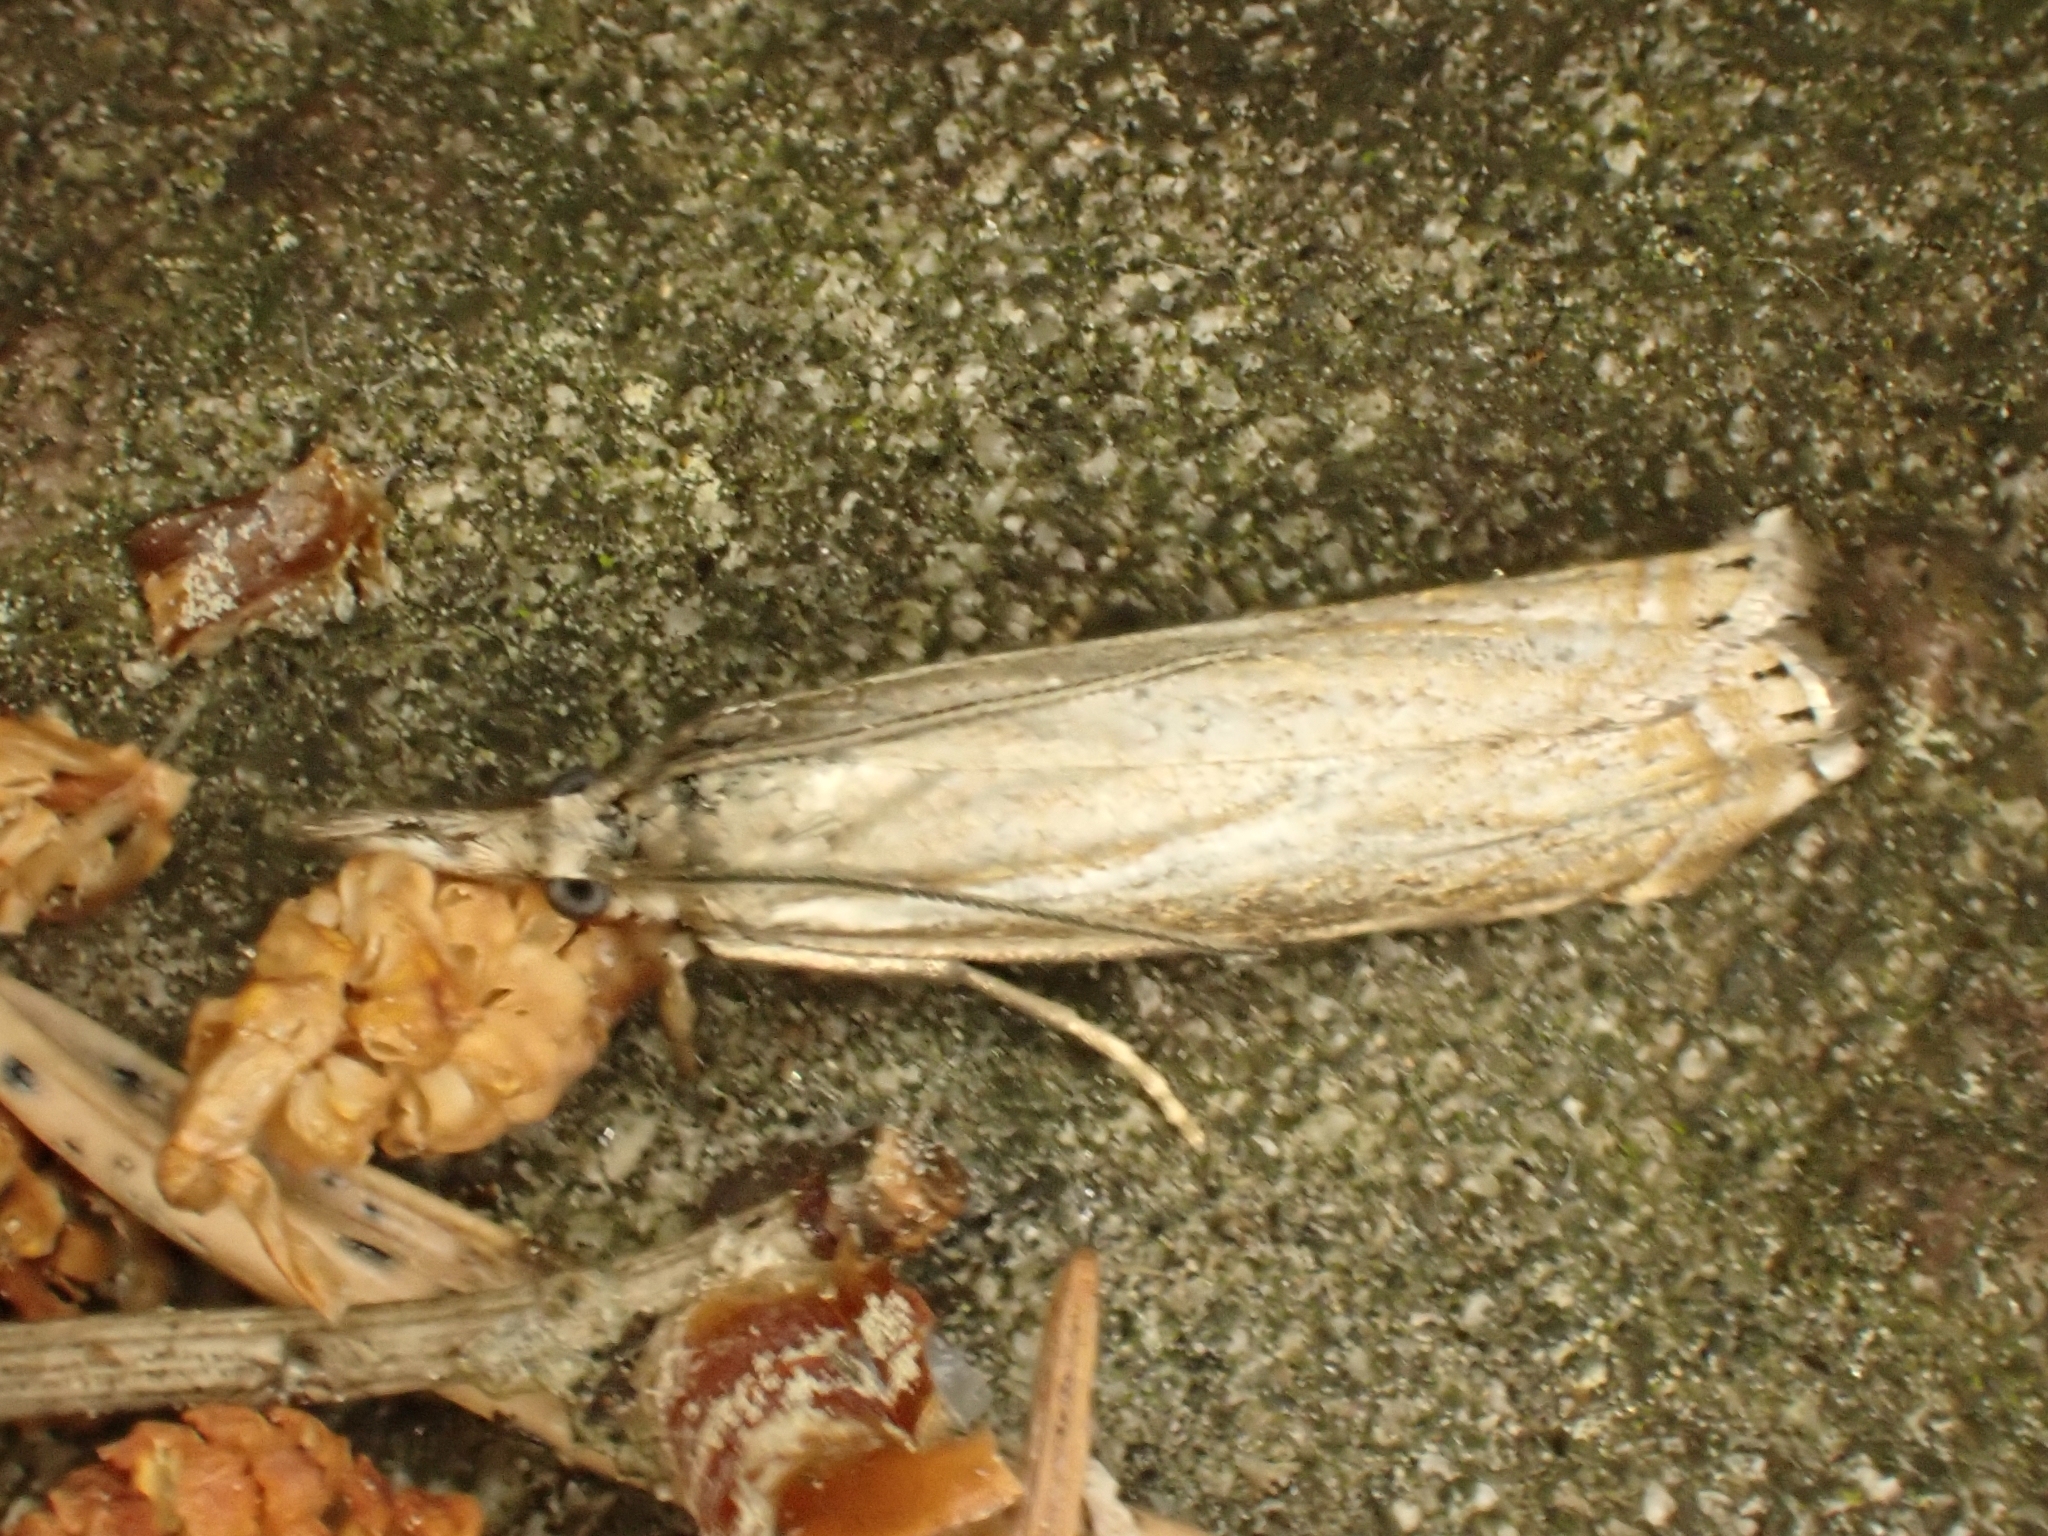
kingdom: Animalia
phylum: Arthropoda
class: Insecta
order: Lepidoptera
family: Crambidae
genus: Chrysoteuchia
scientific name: Chrysoteuchia culmella
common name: Garden grass-veneer
